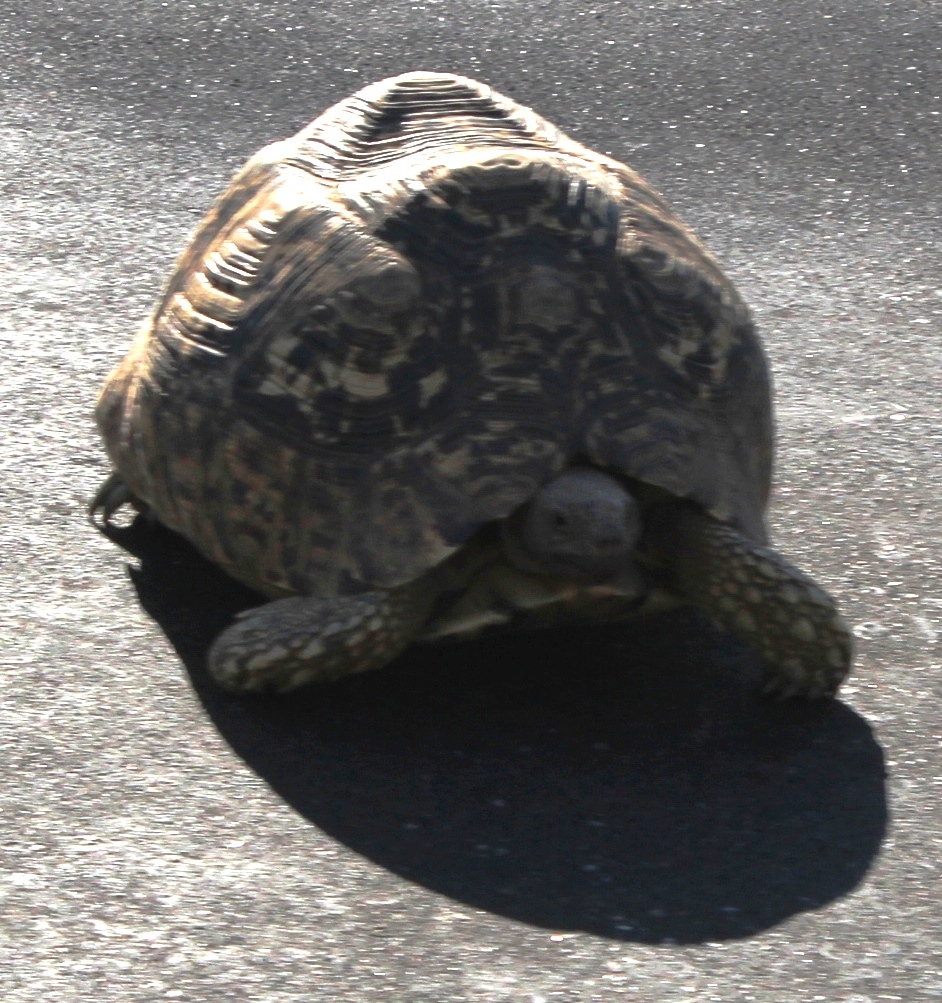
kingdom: Animalia
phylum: Chordata
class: Testudines
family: Testudinidae
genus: Stigmochelys
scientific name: Stigmochelys pardalis
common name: Leopard tortoise
